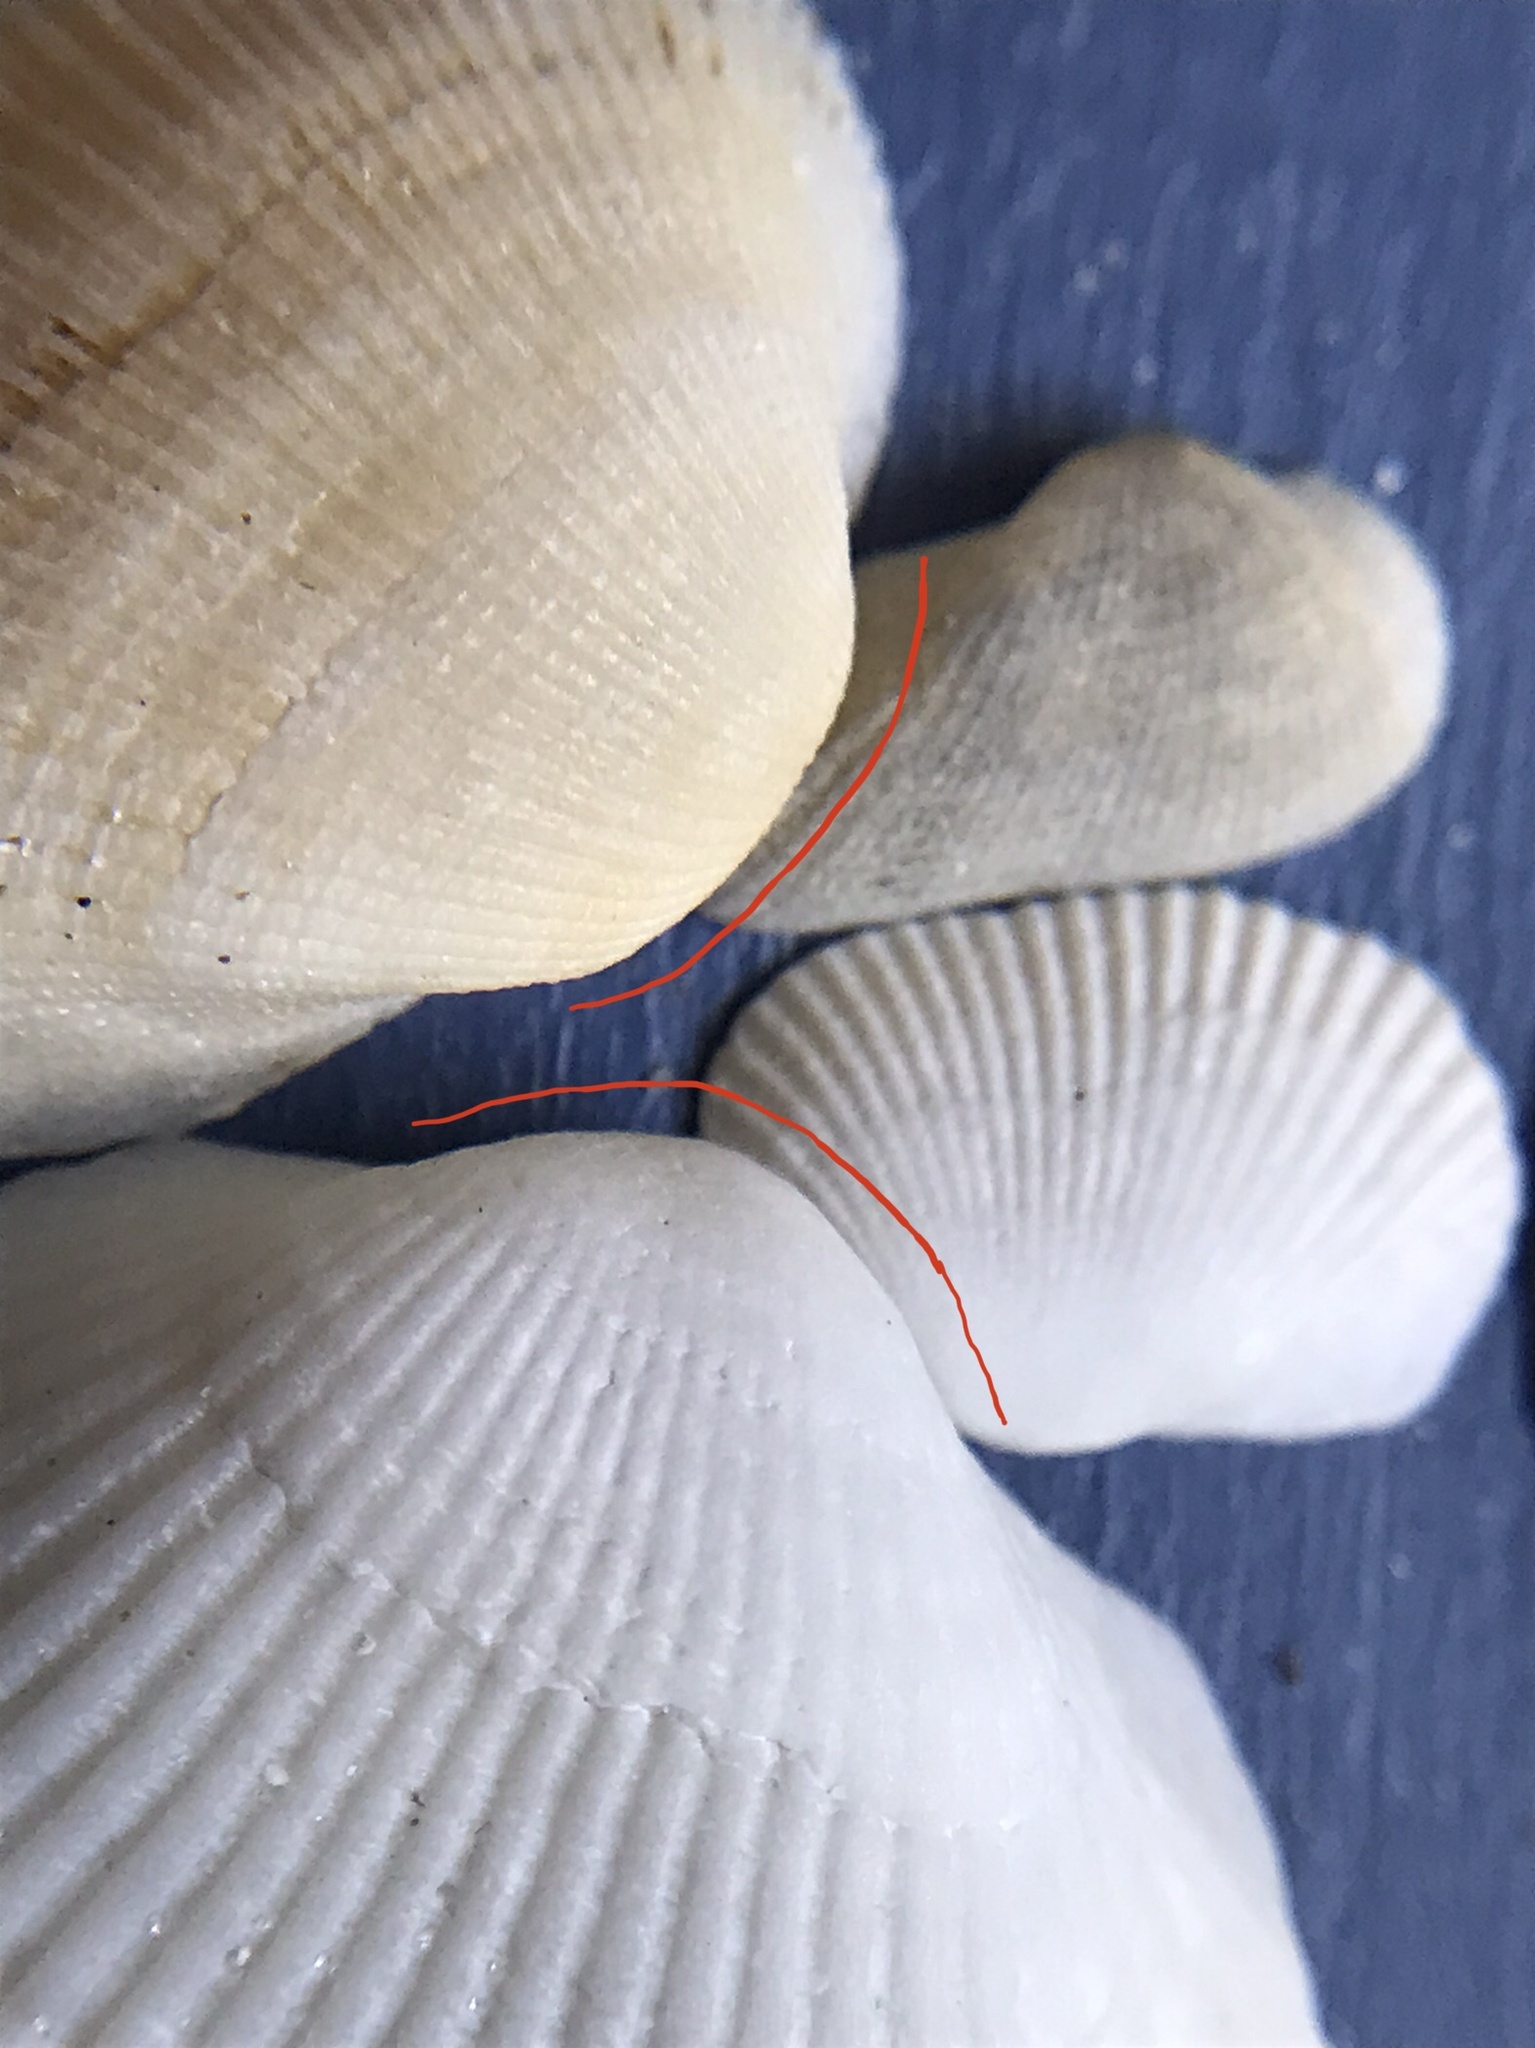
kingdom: Animalia
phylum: Mollusca
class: Bivalvia
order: Arcida
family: Arcidae
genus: Fugleria
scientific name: Fugleria tenera
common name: Delicate ark
